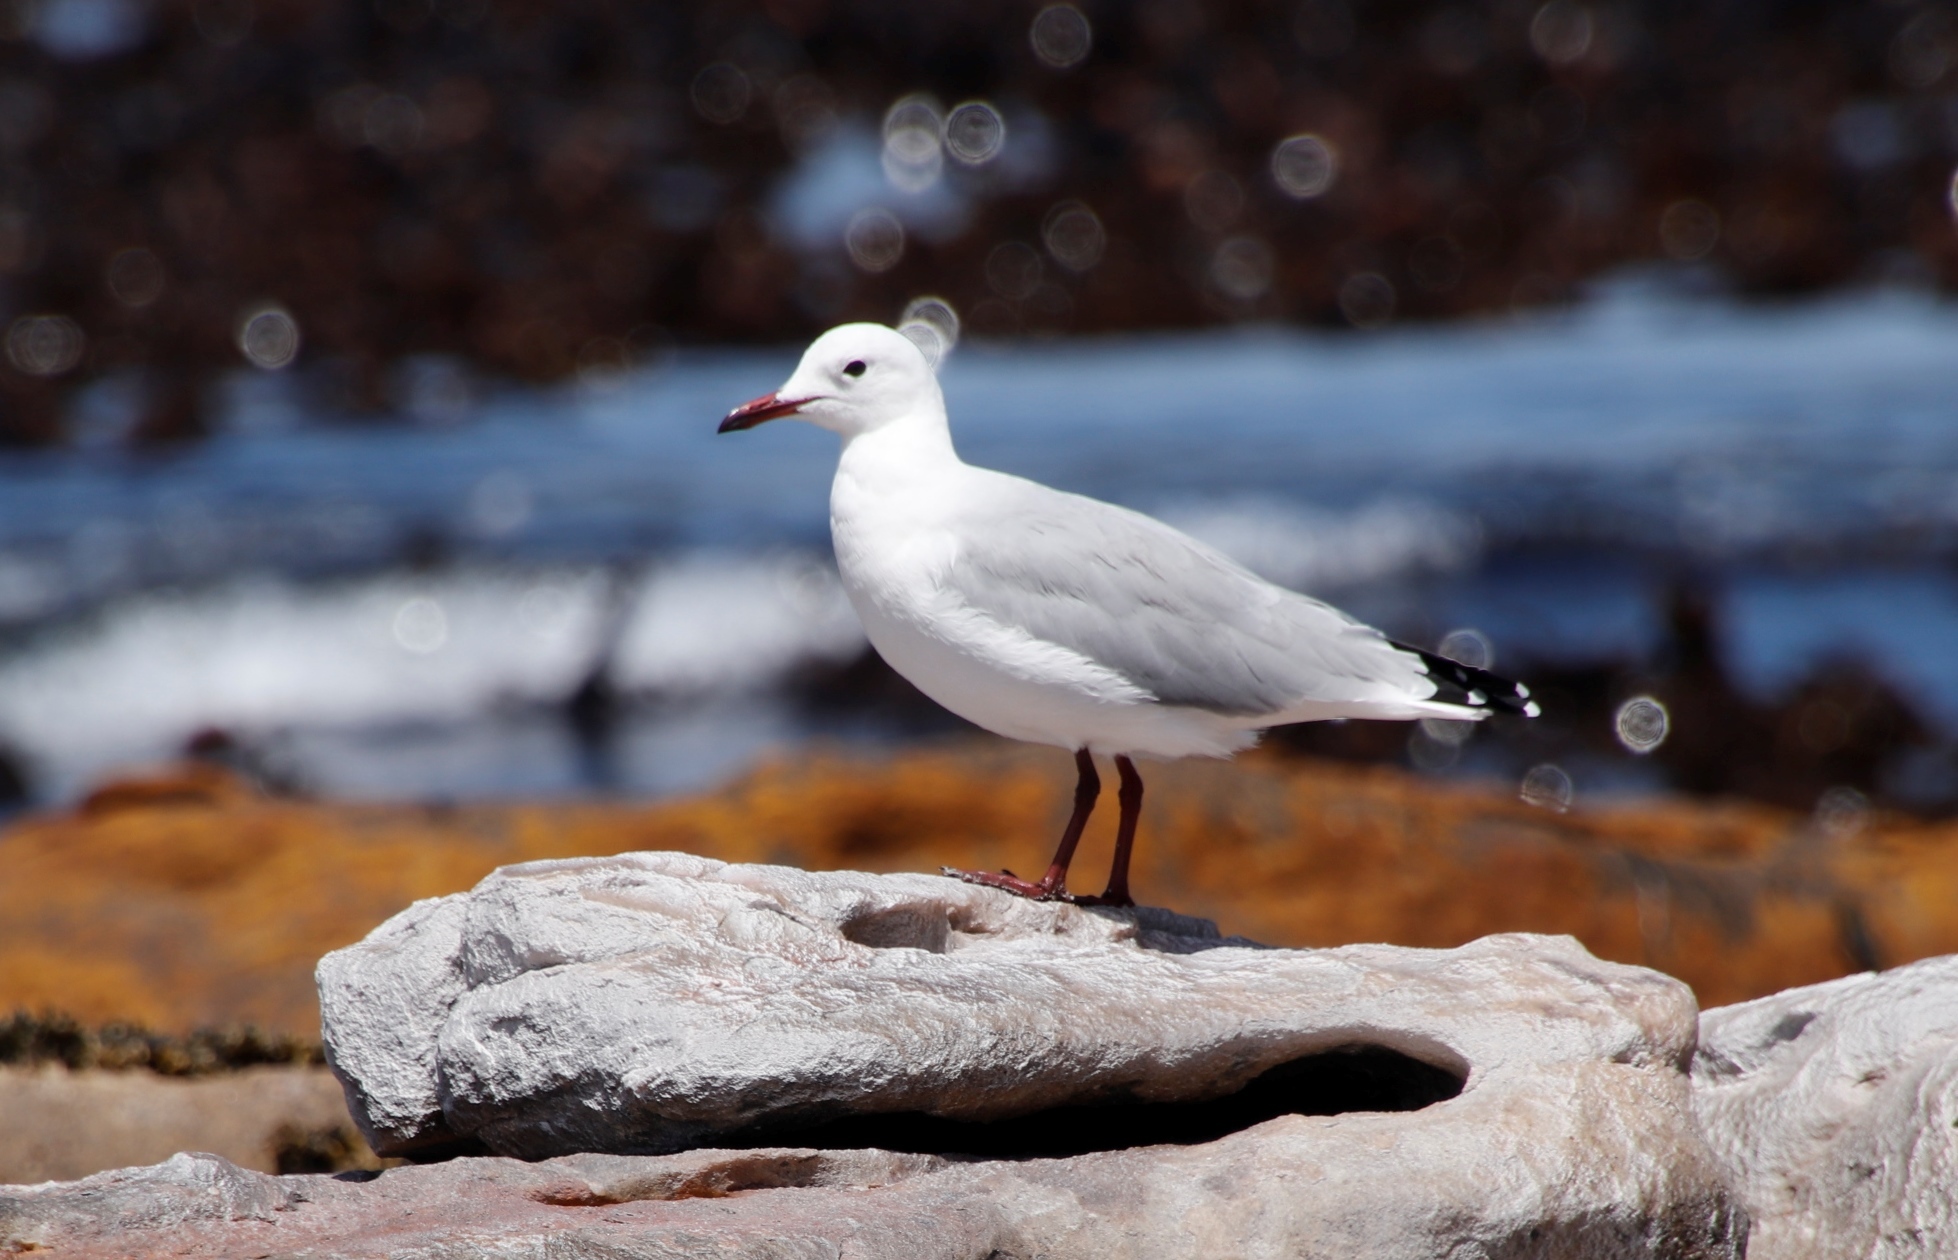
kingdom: Animalia
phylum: Chordata
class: Aves
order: Charadriiformes
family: Laridae
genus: Chroicocephalus
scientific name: Chroicocephalus hartlaubii
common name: Hartlaub's gull
